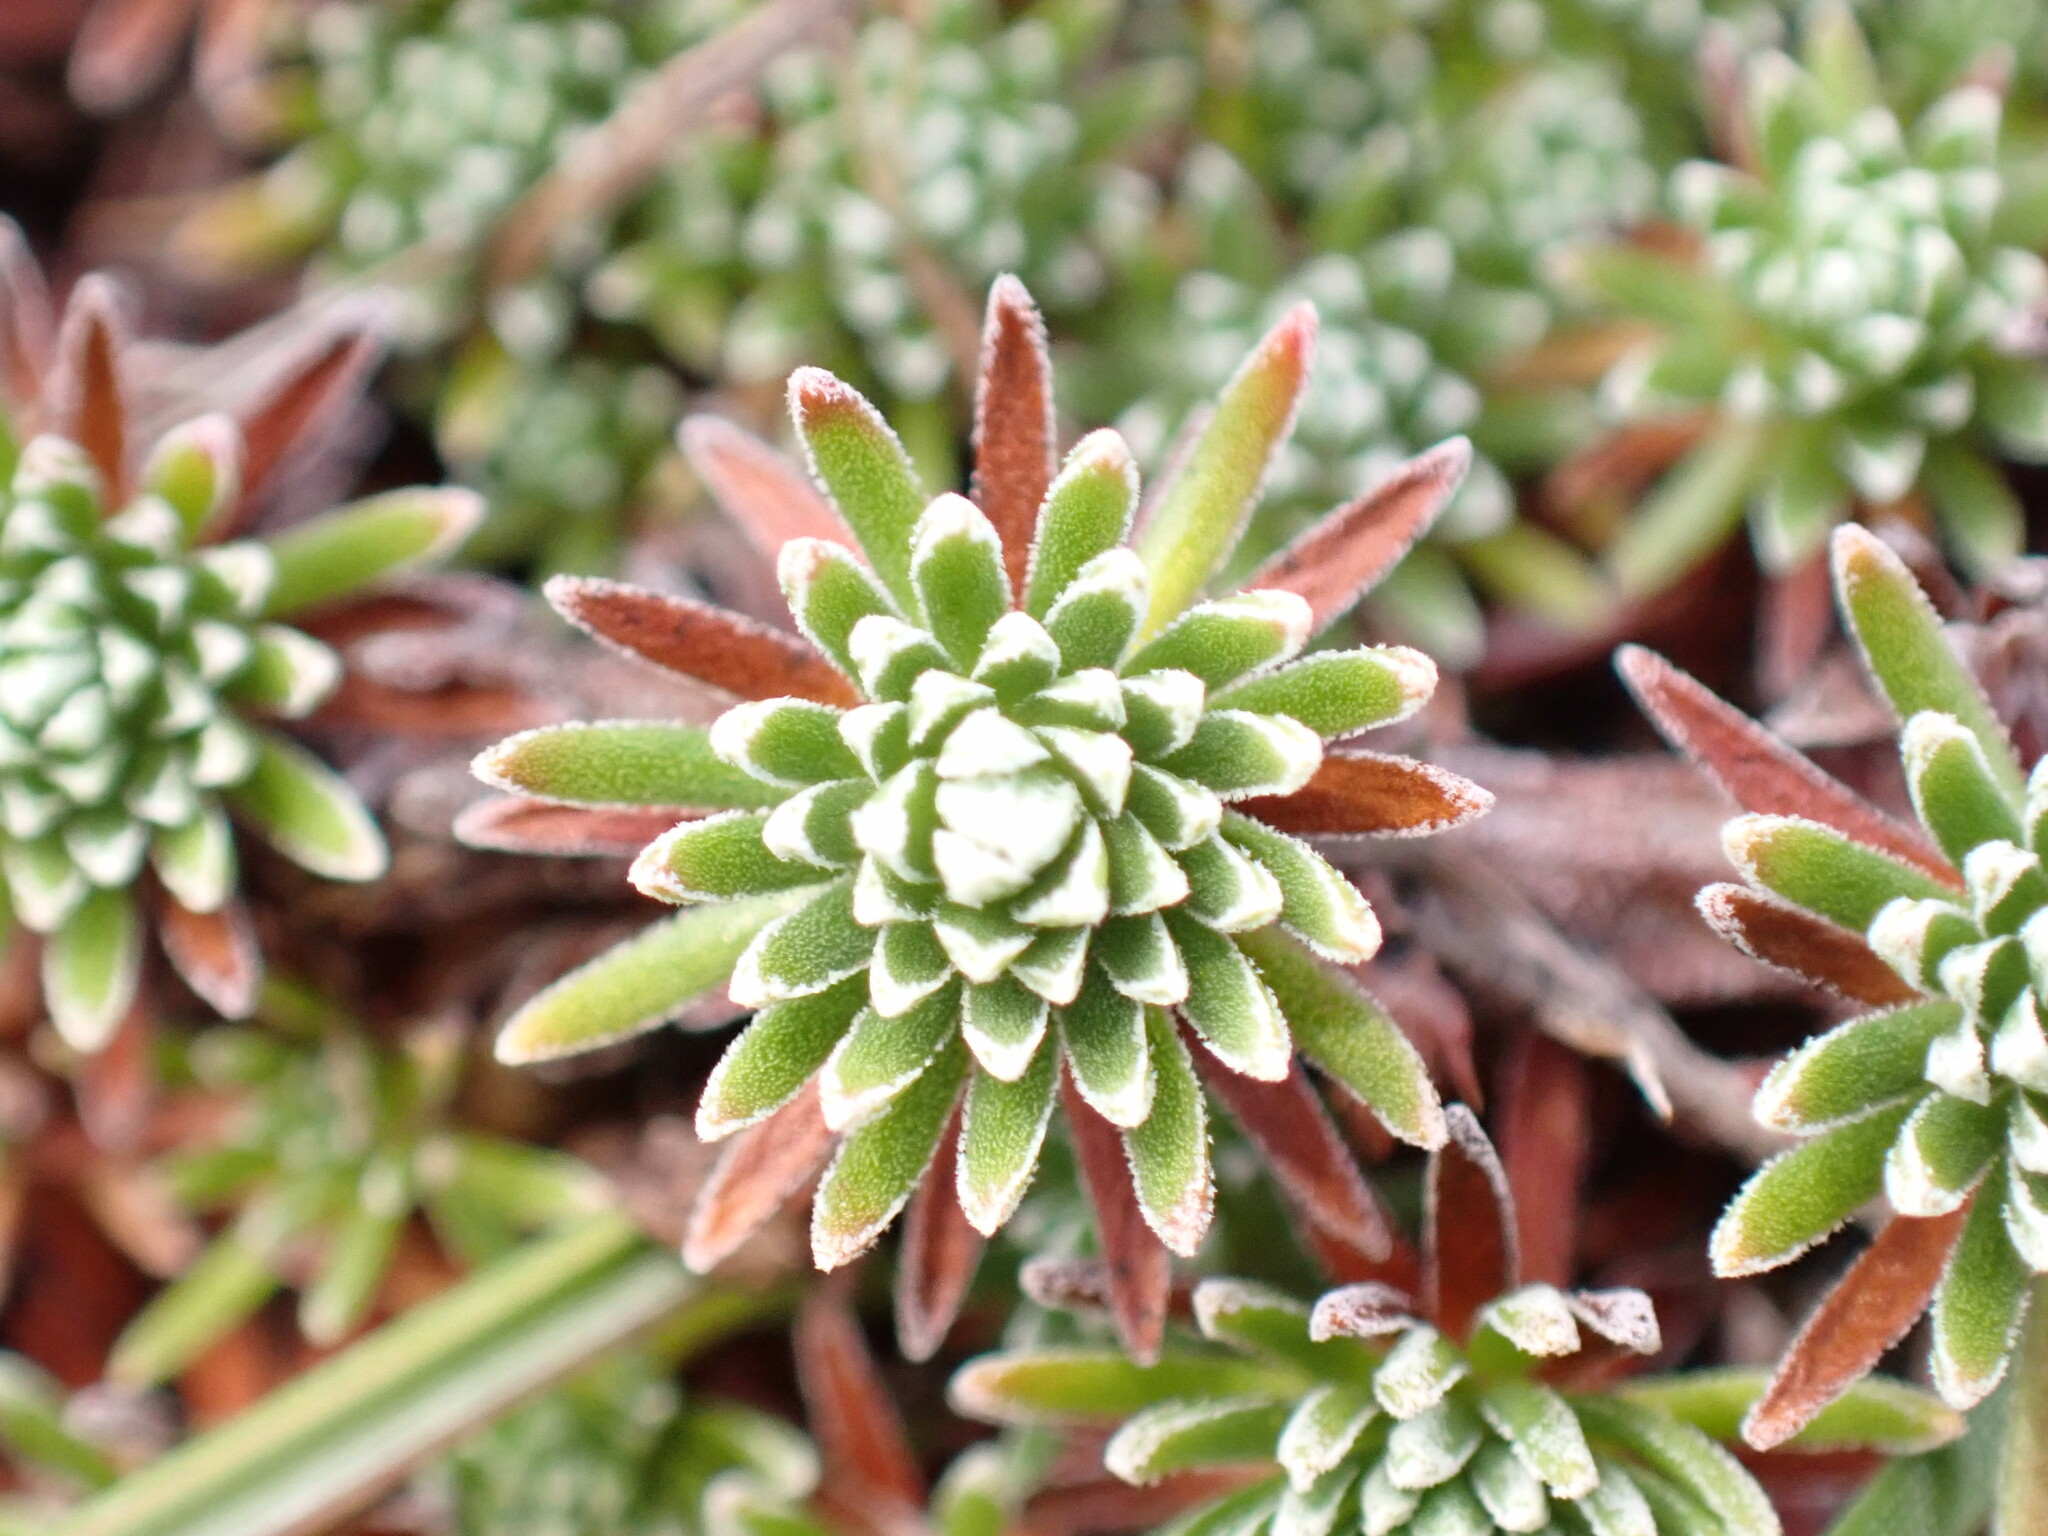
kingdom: Plantae
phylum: Tracheophyta
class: Magnoliopsida
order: Ericales
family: Primulaceae
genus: Androsace
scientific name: Androsace vitaliana
